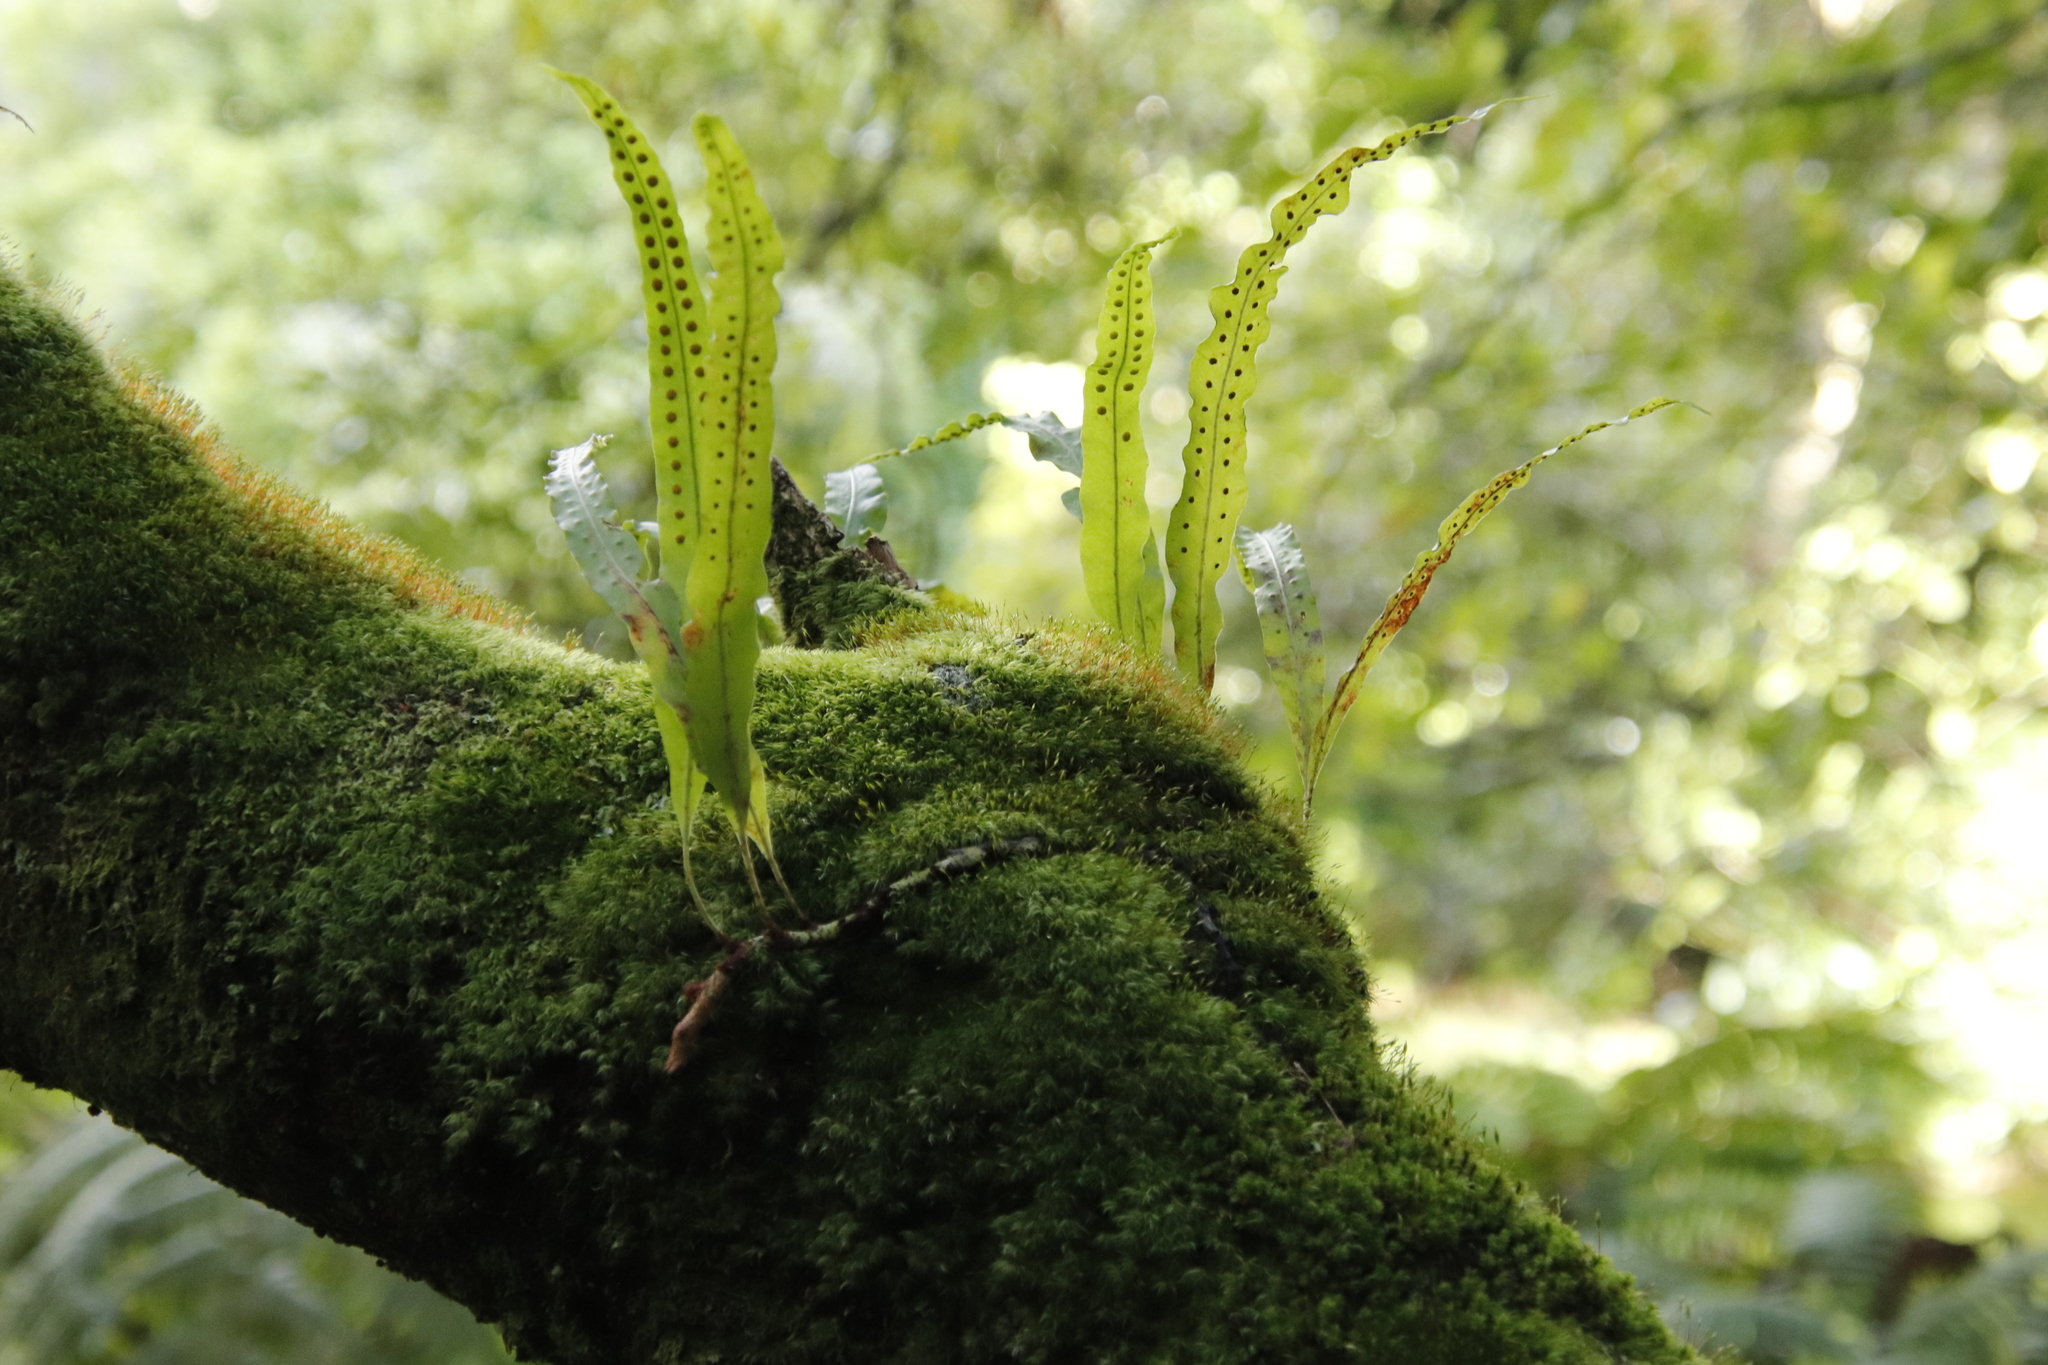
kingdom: Plantae
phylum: Tracheophyta
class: Polypodiopsida
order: Polypodiales
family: Polypodiaceae
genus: Lepisorus
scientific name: Lepisorus excavatus
